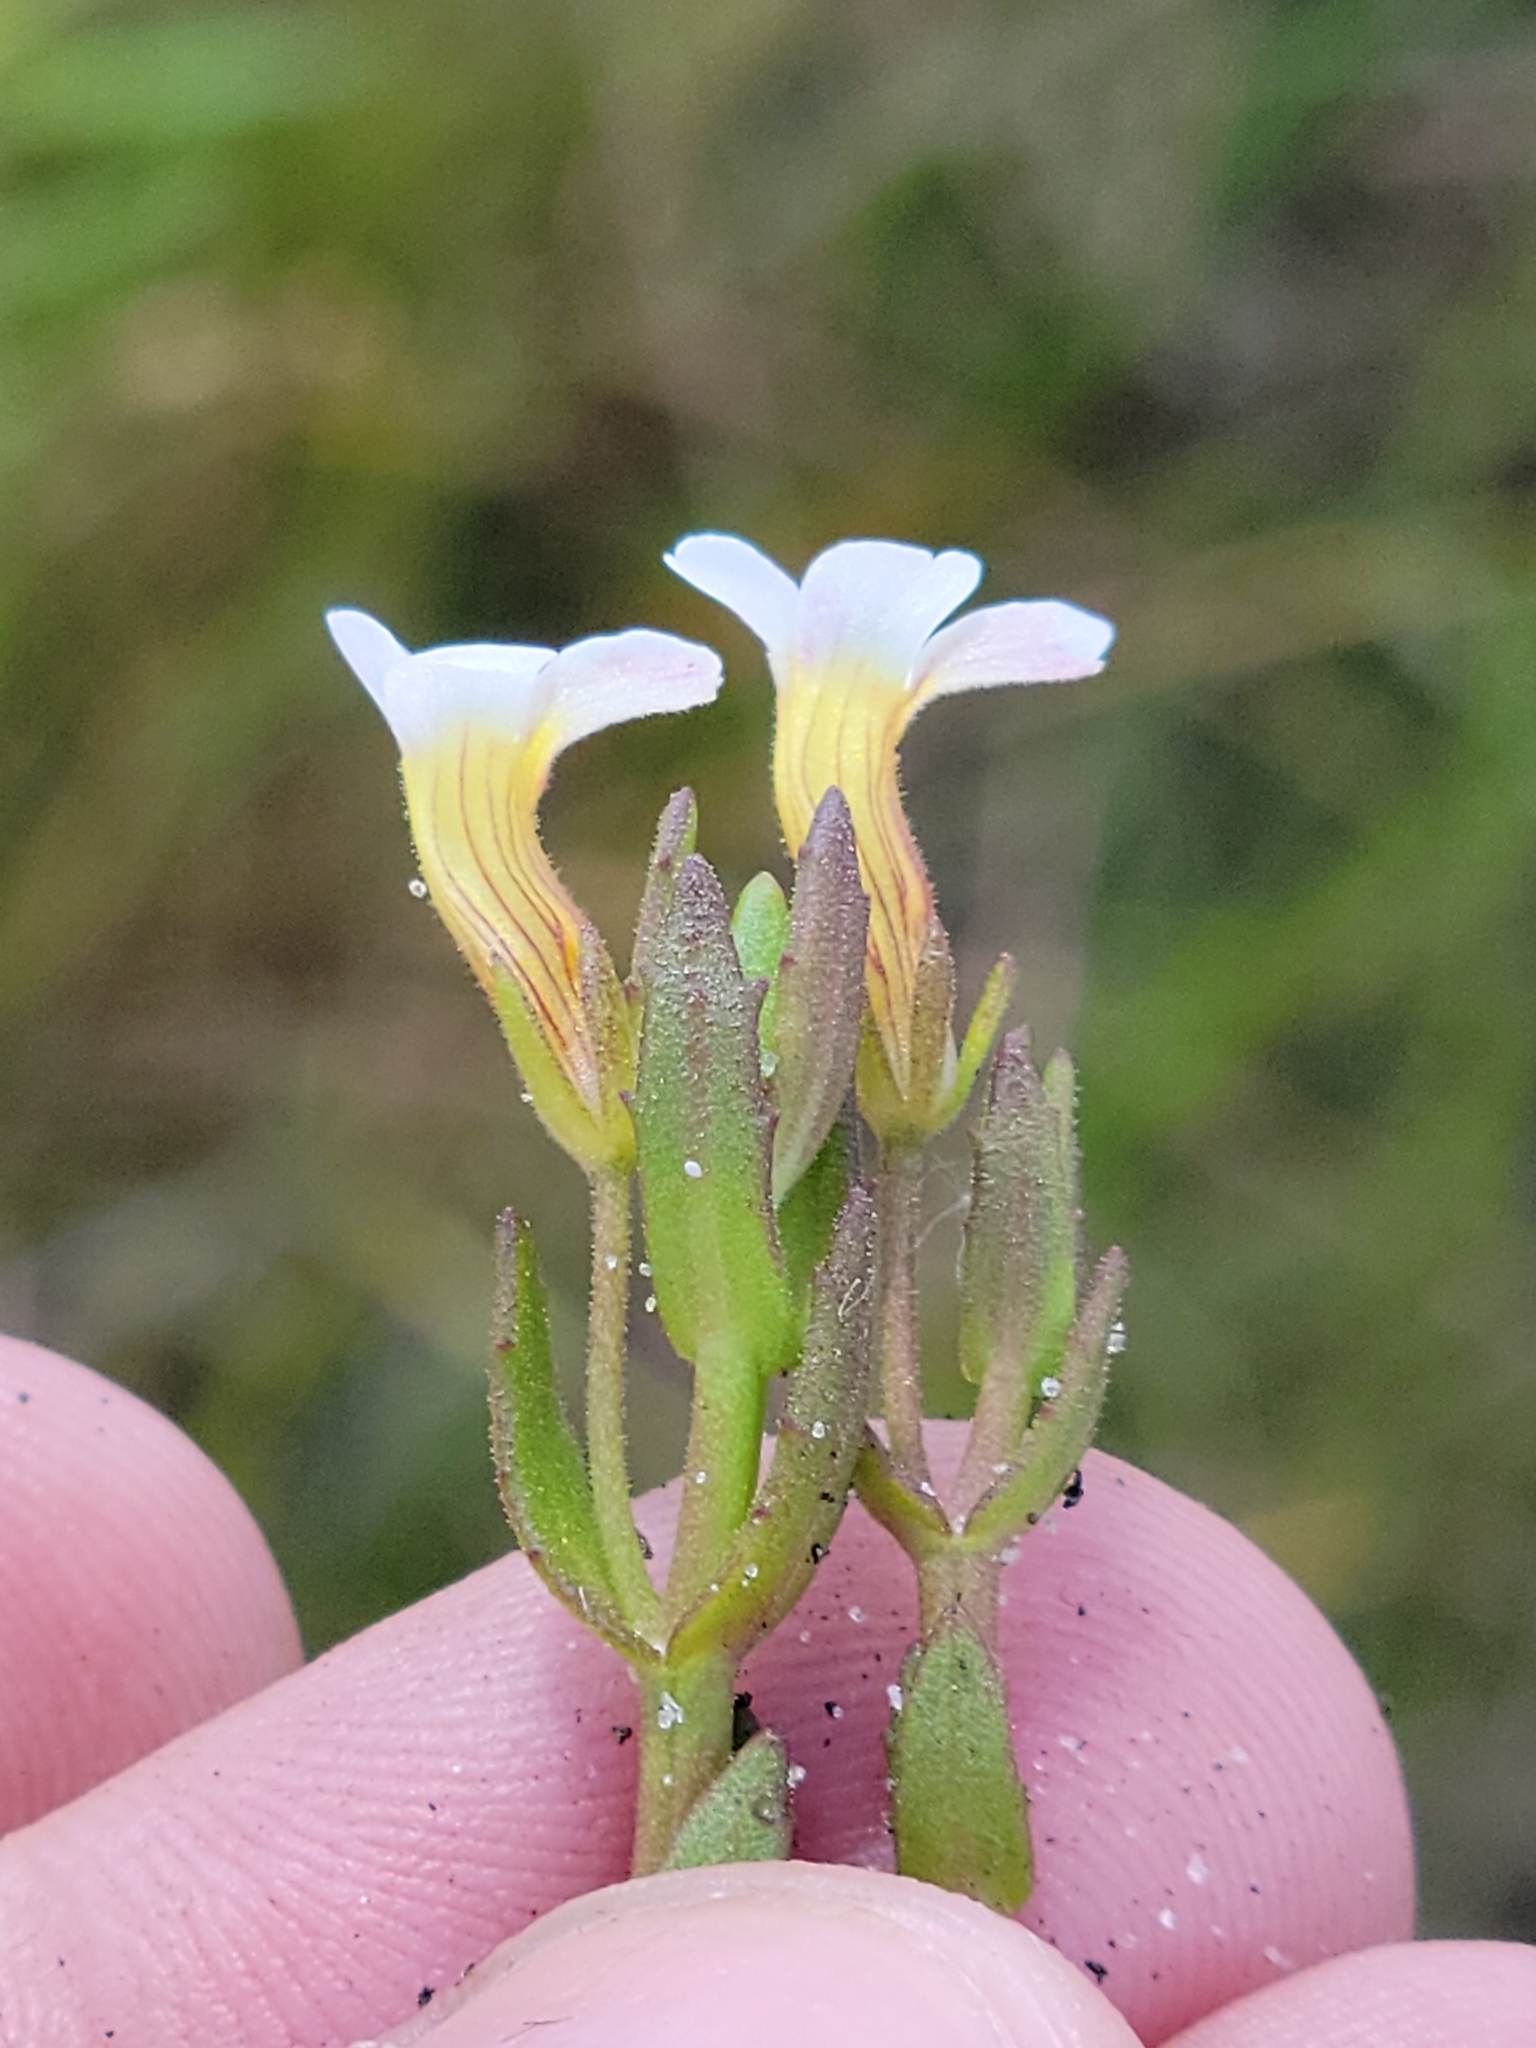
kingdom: Plantae
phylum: Tracheophyta
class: Magnoliopsida
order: Lamiales
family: Plantaginaceae
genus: Gratiola
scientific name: Gratiola ramosa
